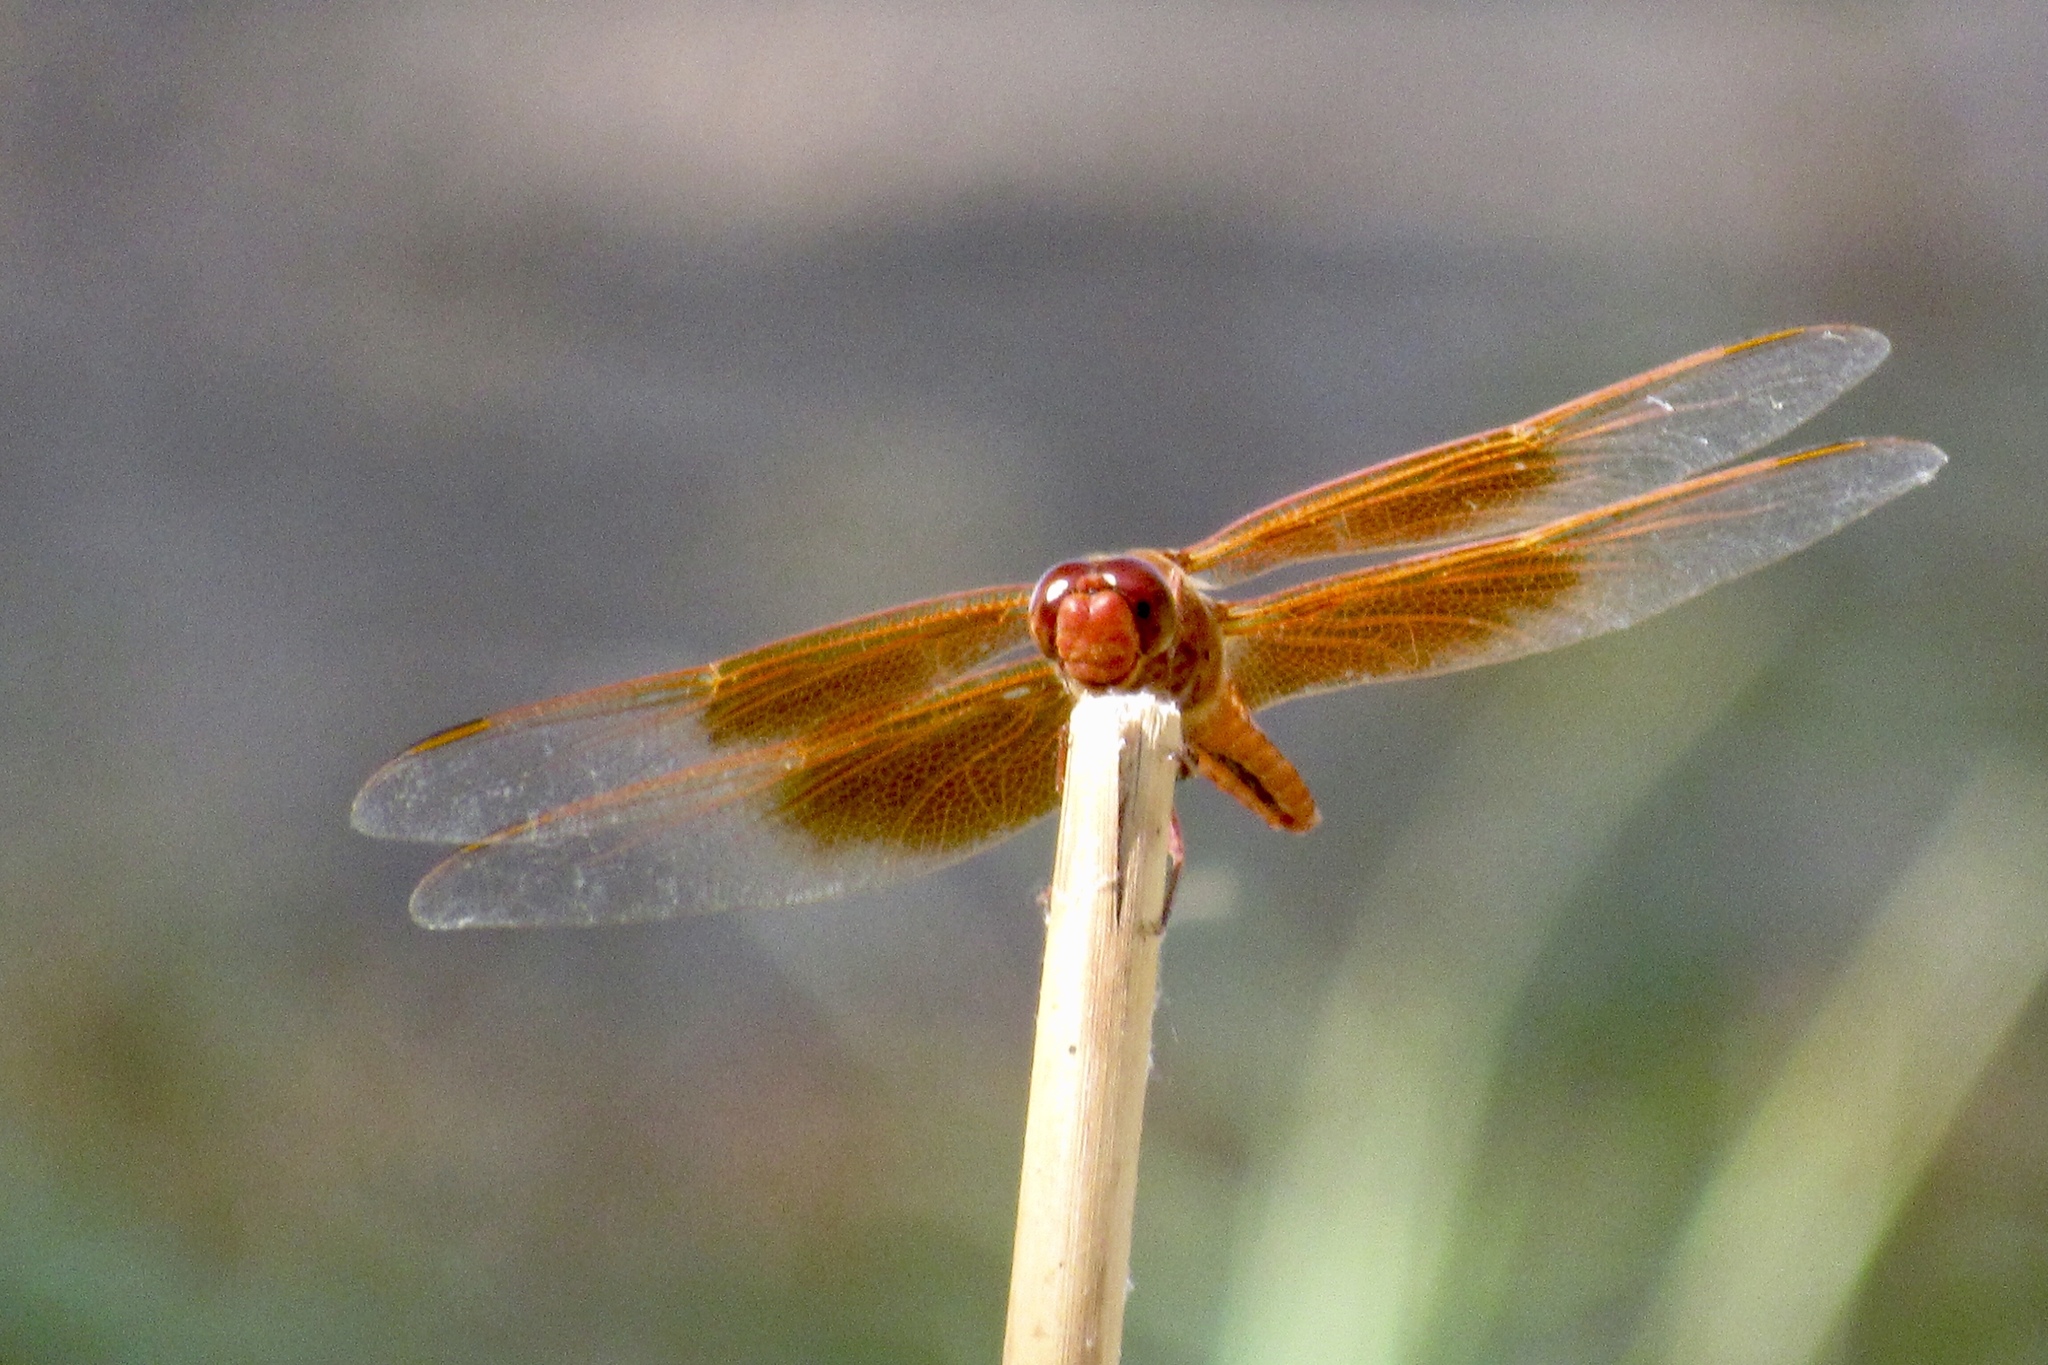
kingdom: Animalia
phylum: Arthropoda
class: Insecta
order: Odonata
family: Libellulidae
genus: Libellula
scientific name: Libellula saturata
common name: Flame skimmer
